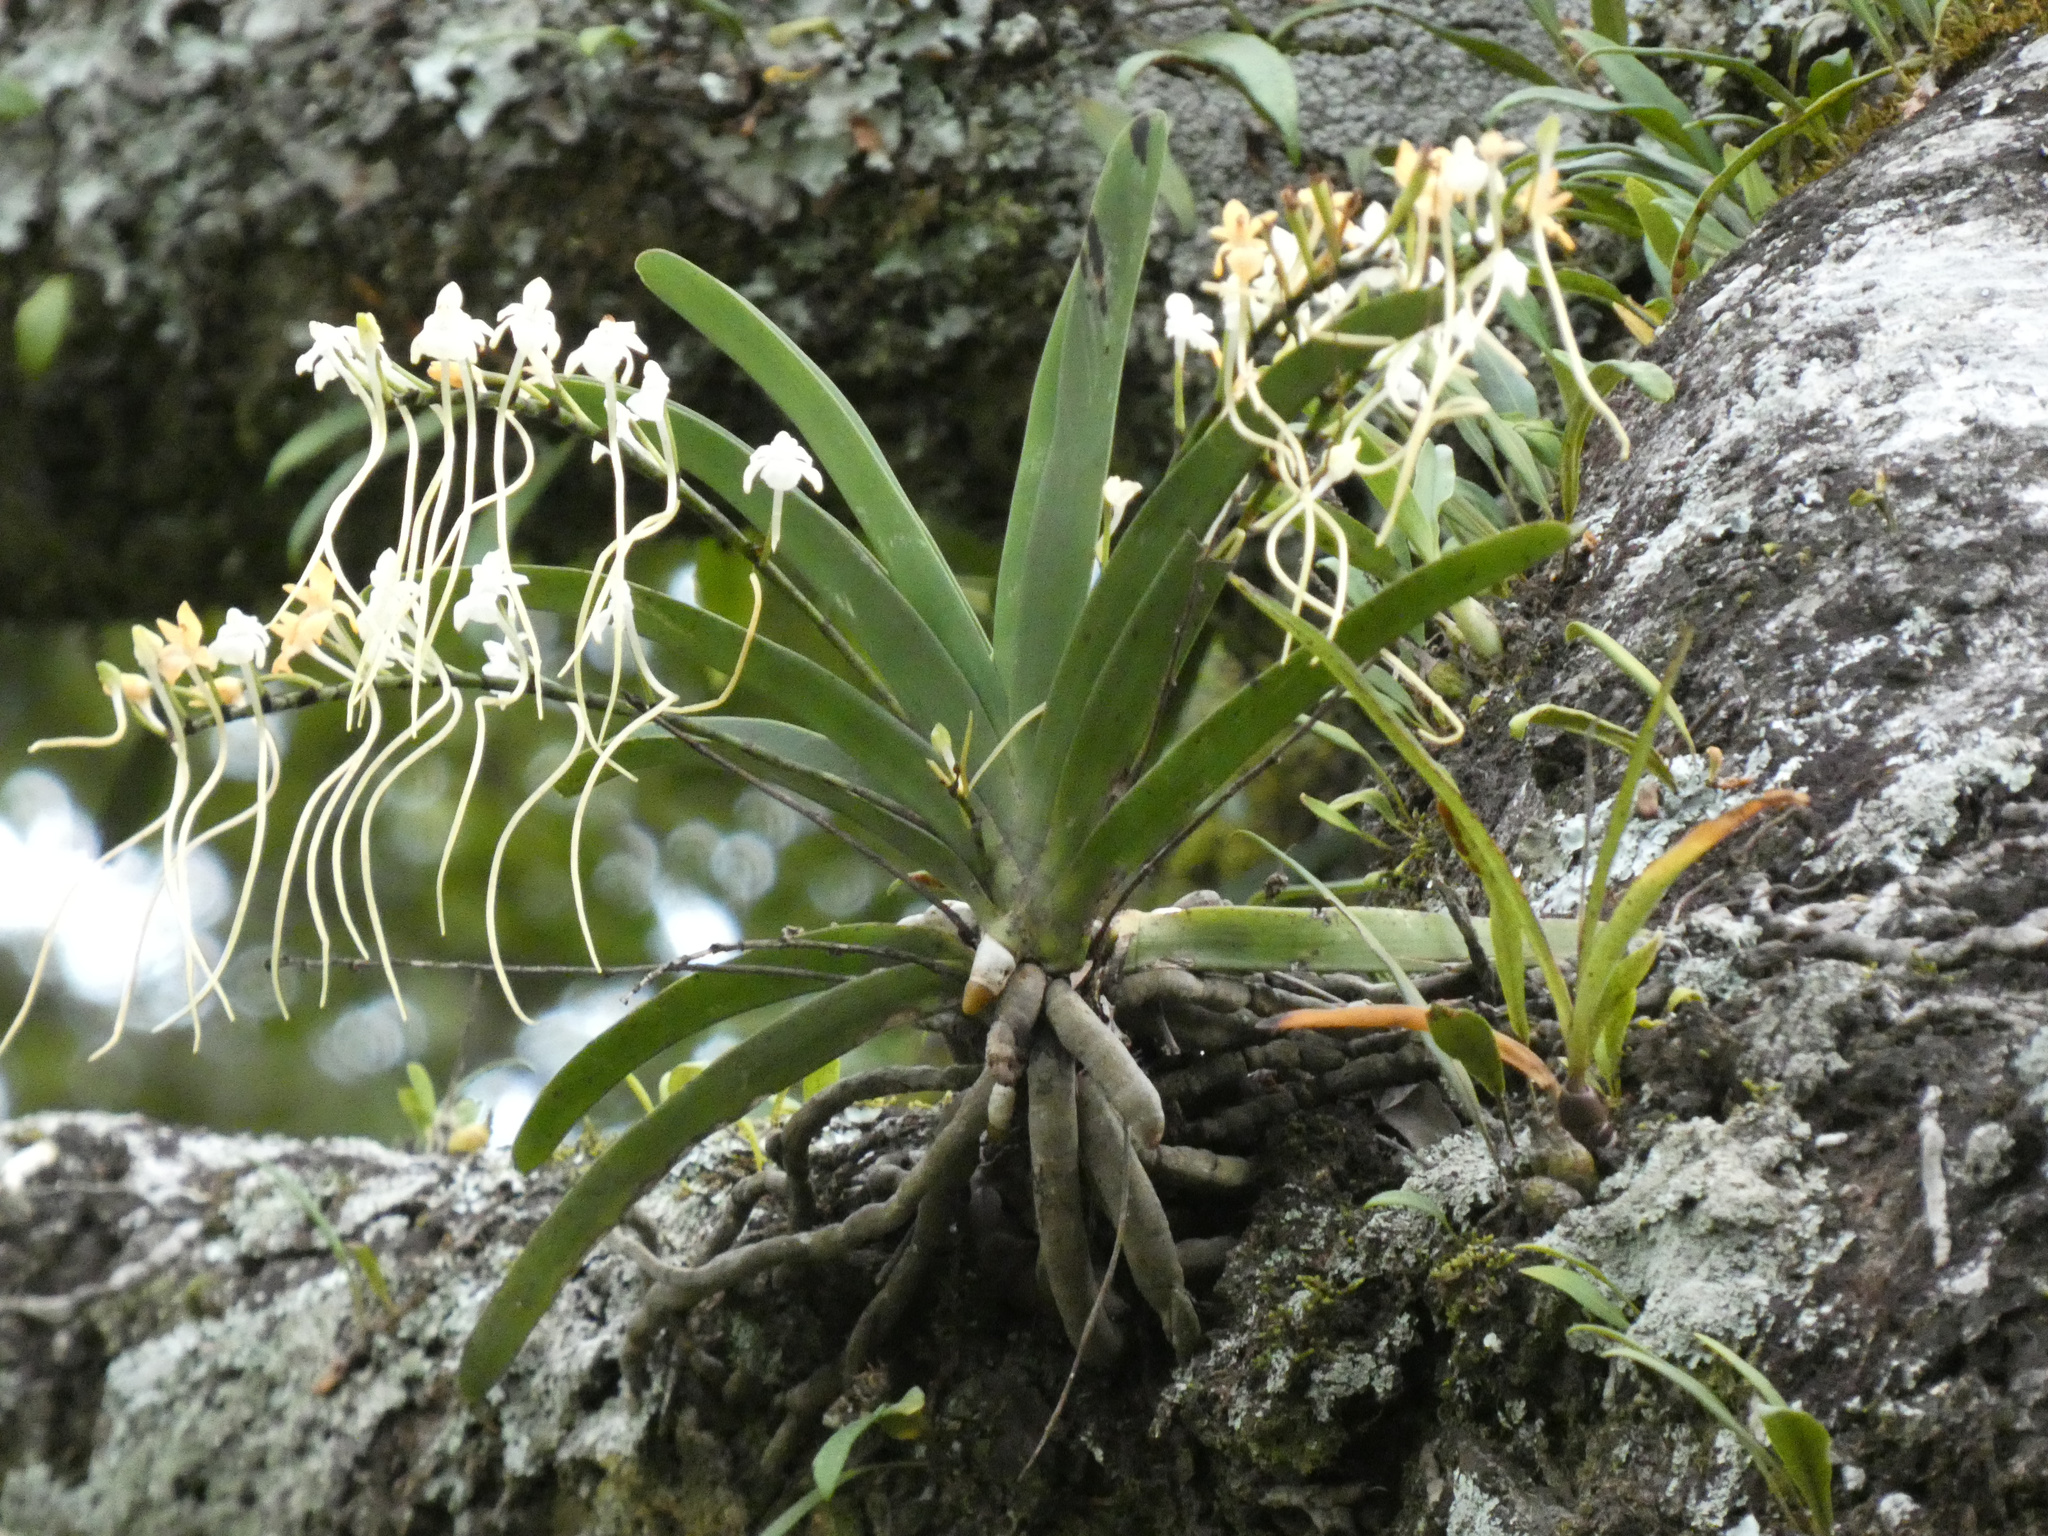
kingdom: Plantae
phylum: Tracheophyta
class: Liliopsida
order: Asparagales
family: Orchidaceae
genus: Rangaeris
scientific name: Rangaeris muscicola
